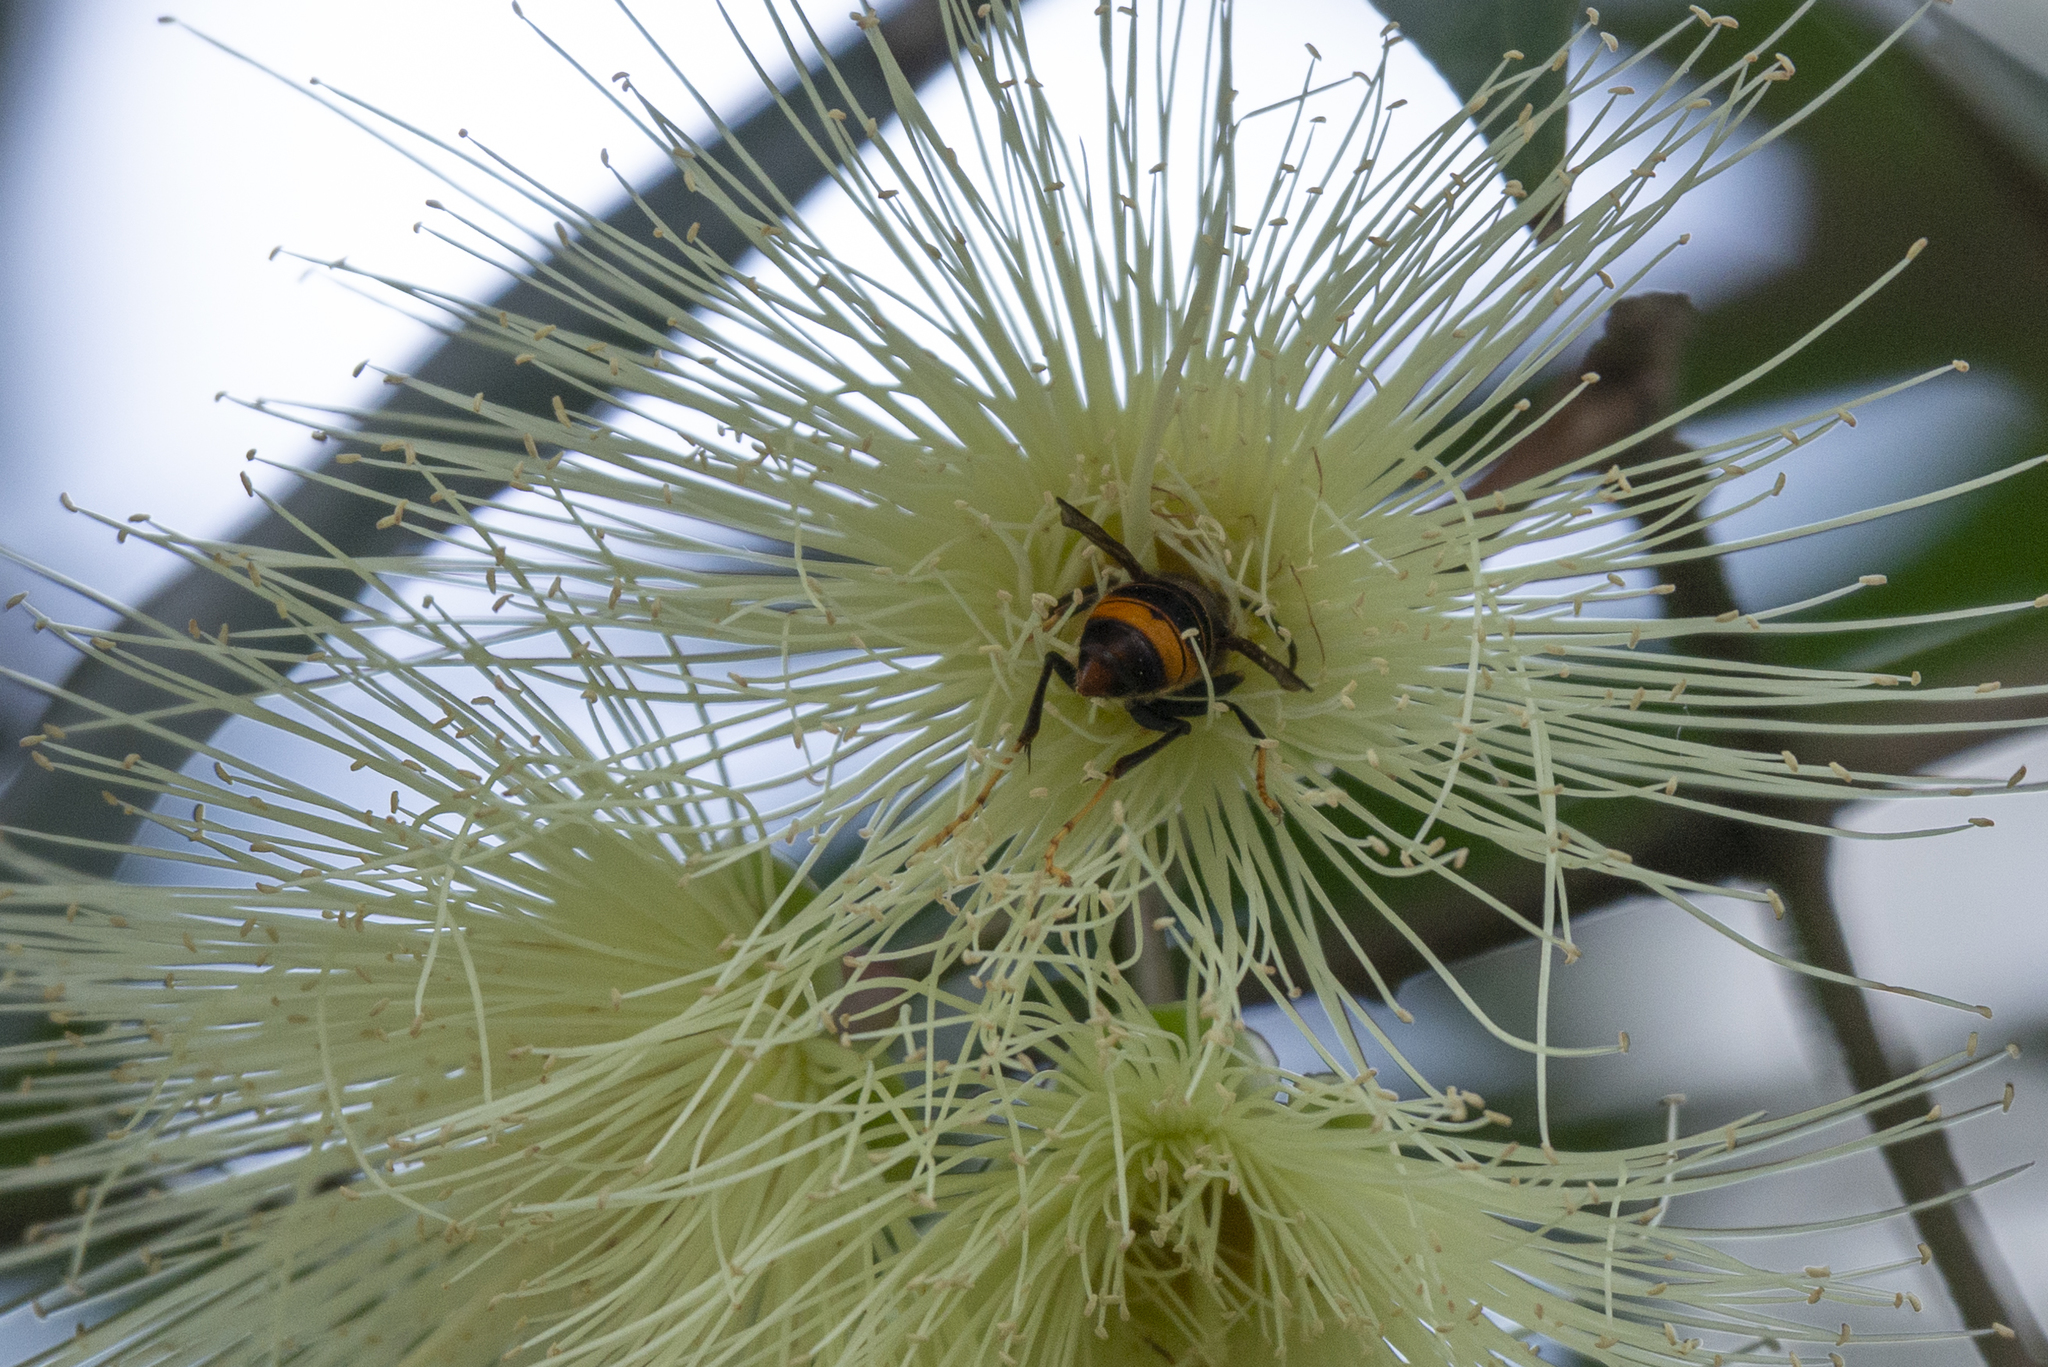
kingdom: Animalia
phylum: Arthropoda
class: Insecta
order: Hymenoptera
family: Vespidae
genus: Vespa
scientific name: Vespa velutina
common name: Asian hornet
